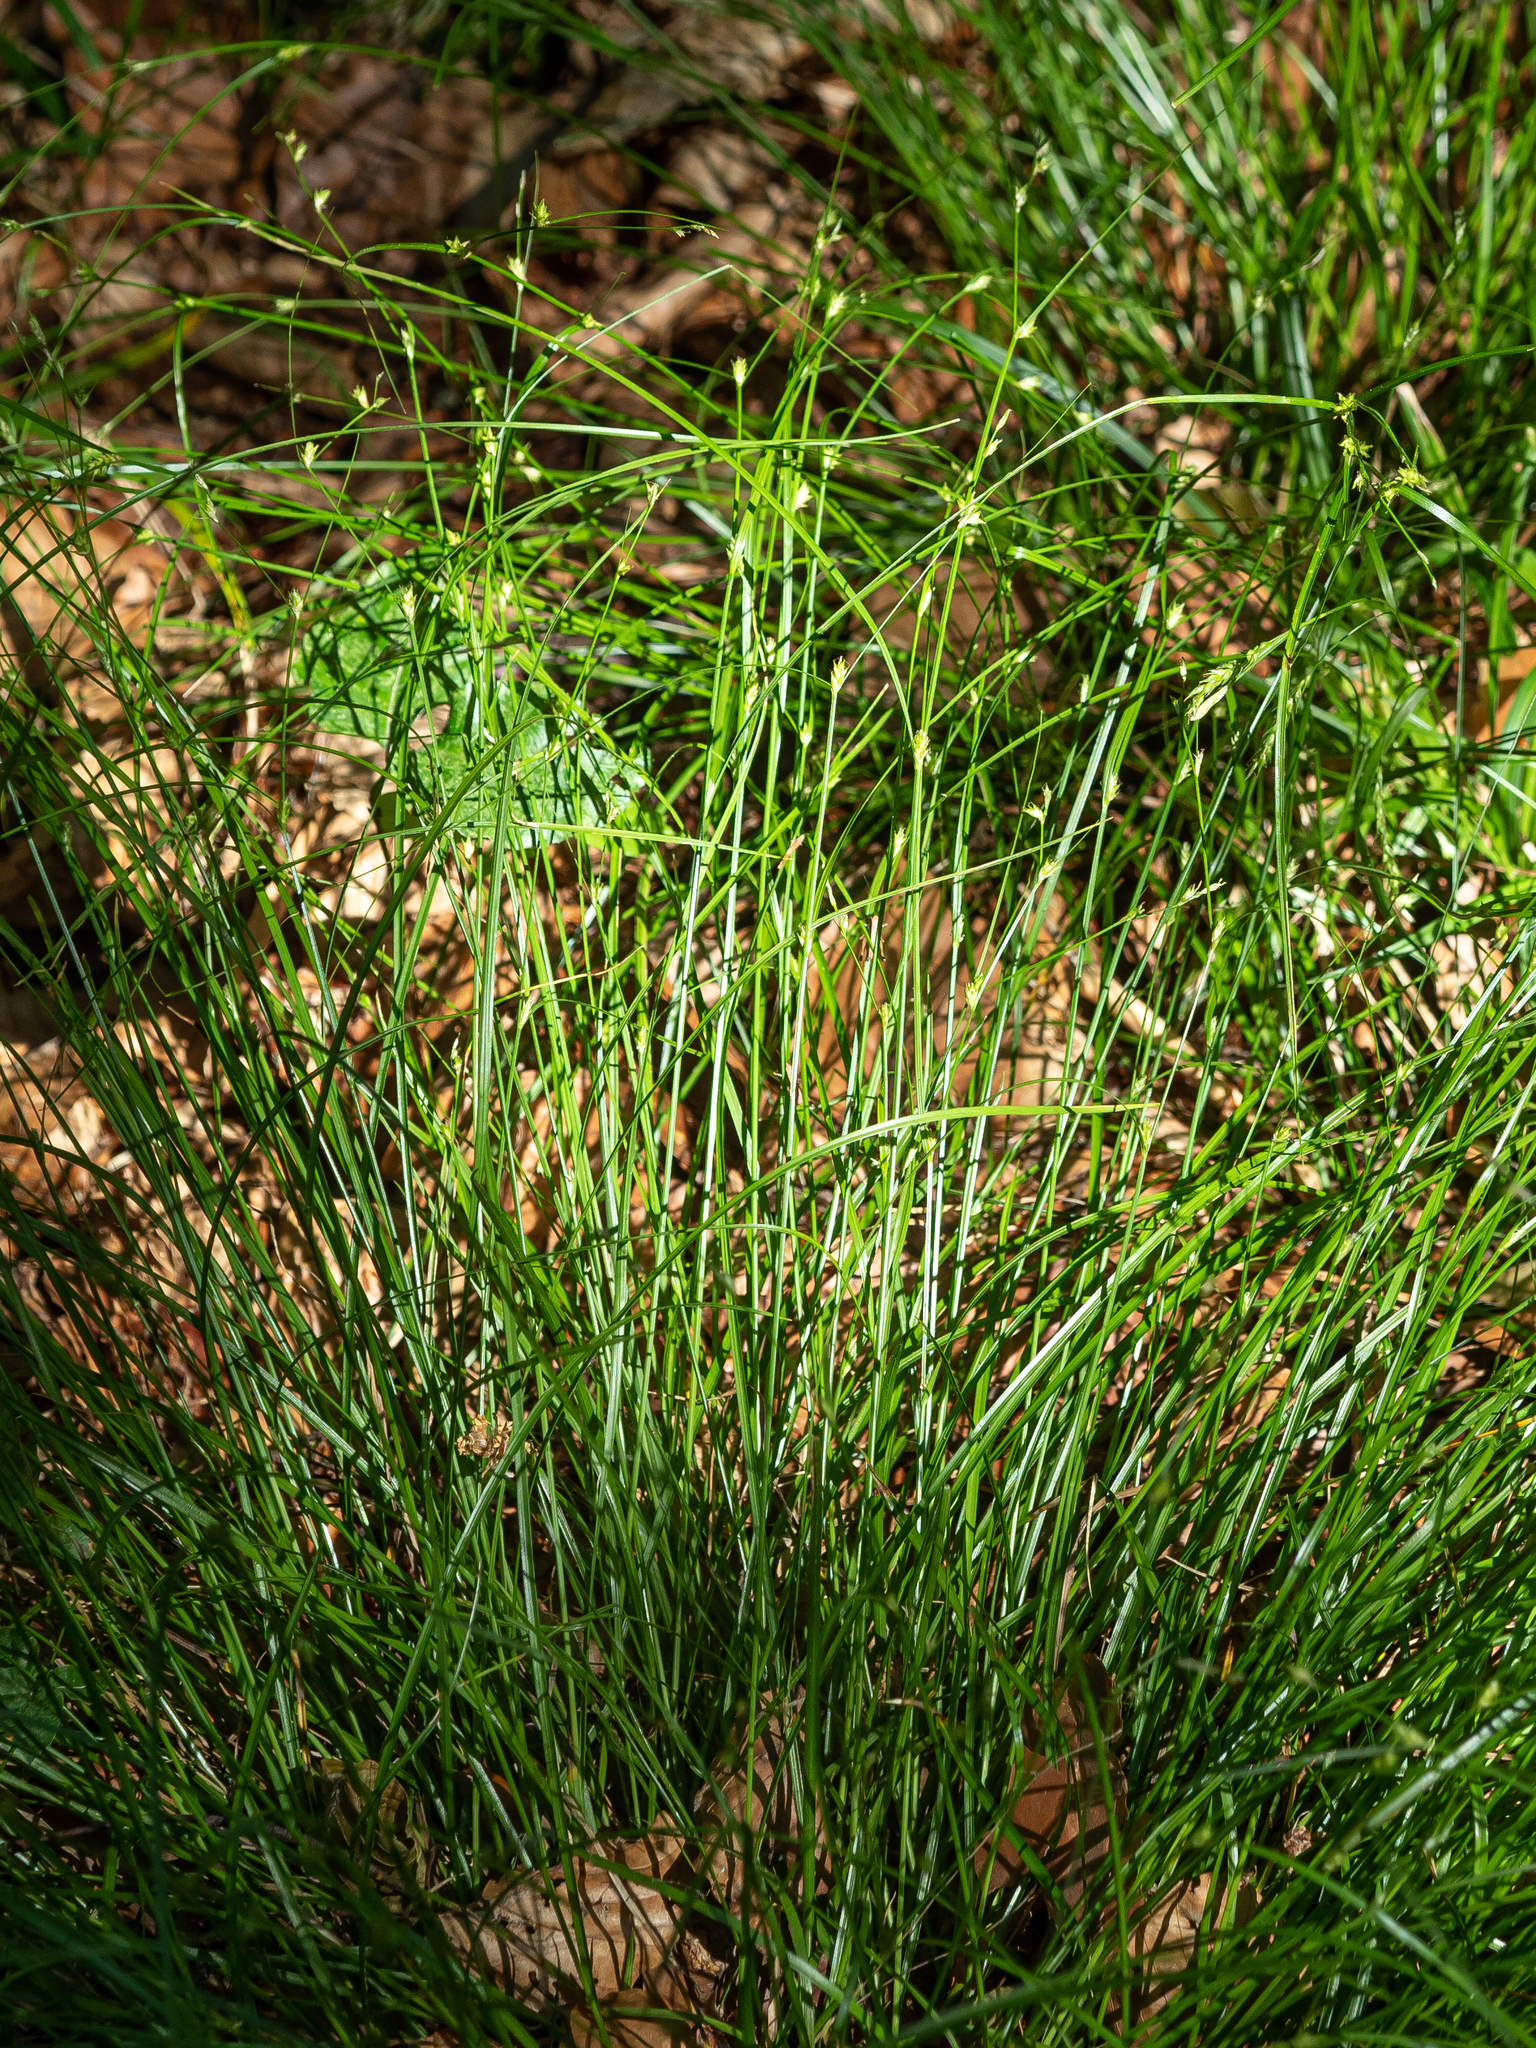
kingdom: Plantae
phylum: Tracheophyta
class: Liliopsida
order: Poales
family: Cyperaceae
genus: Carex
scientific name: Carex remota
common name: Remote sedge
